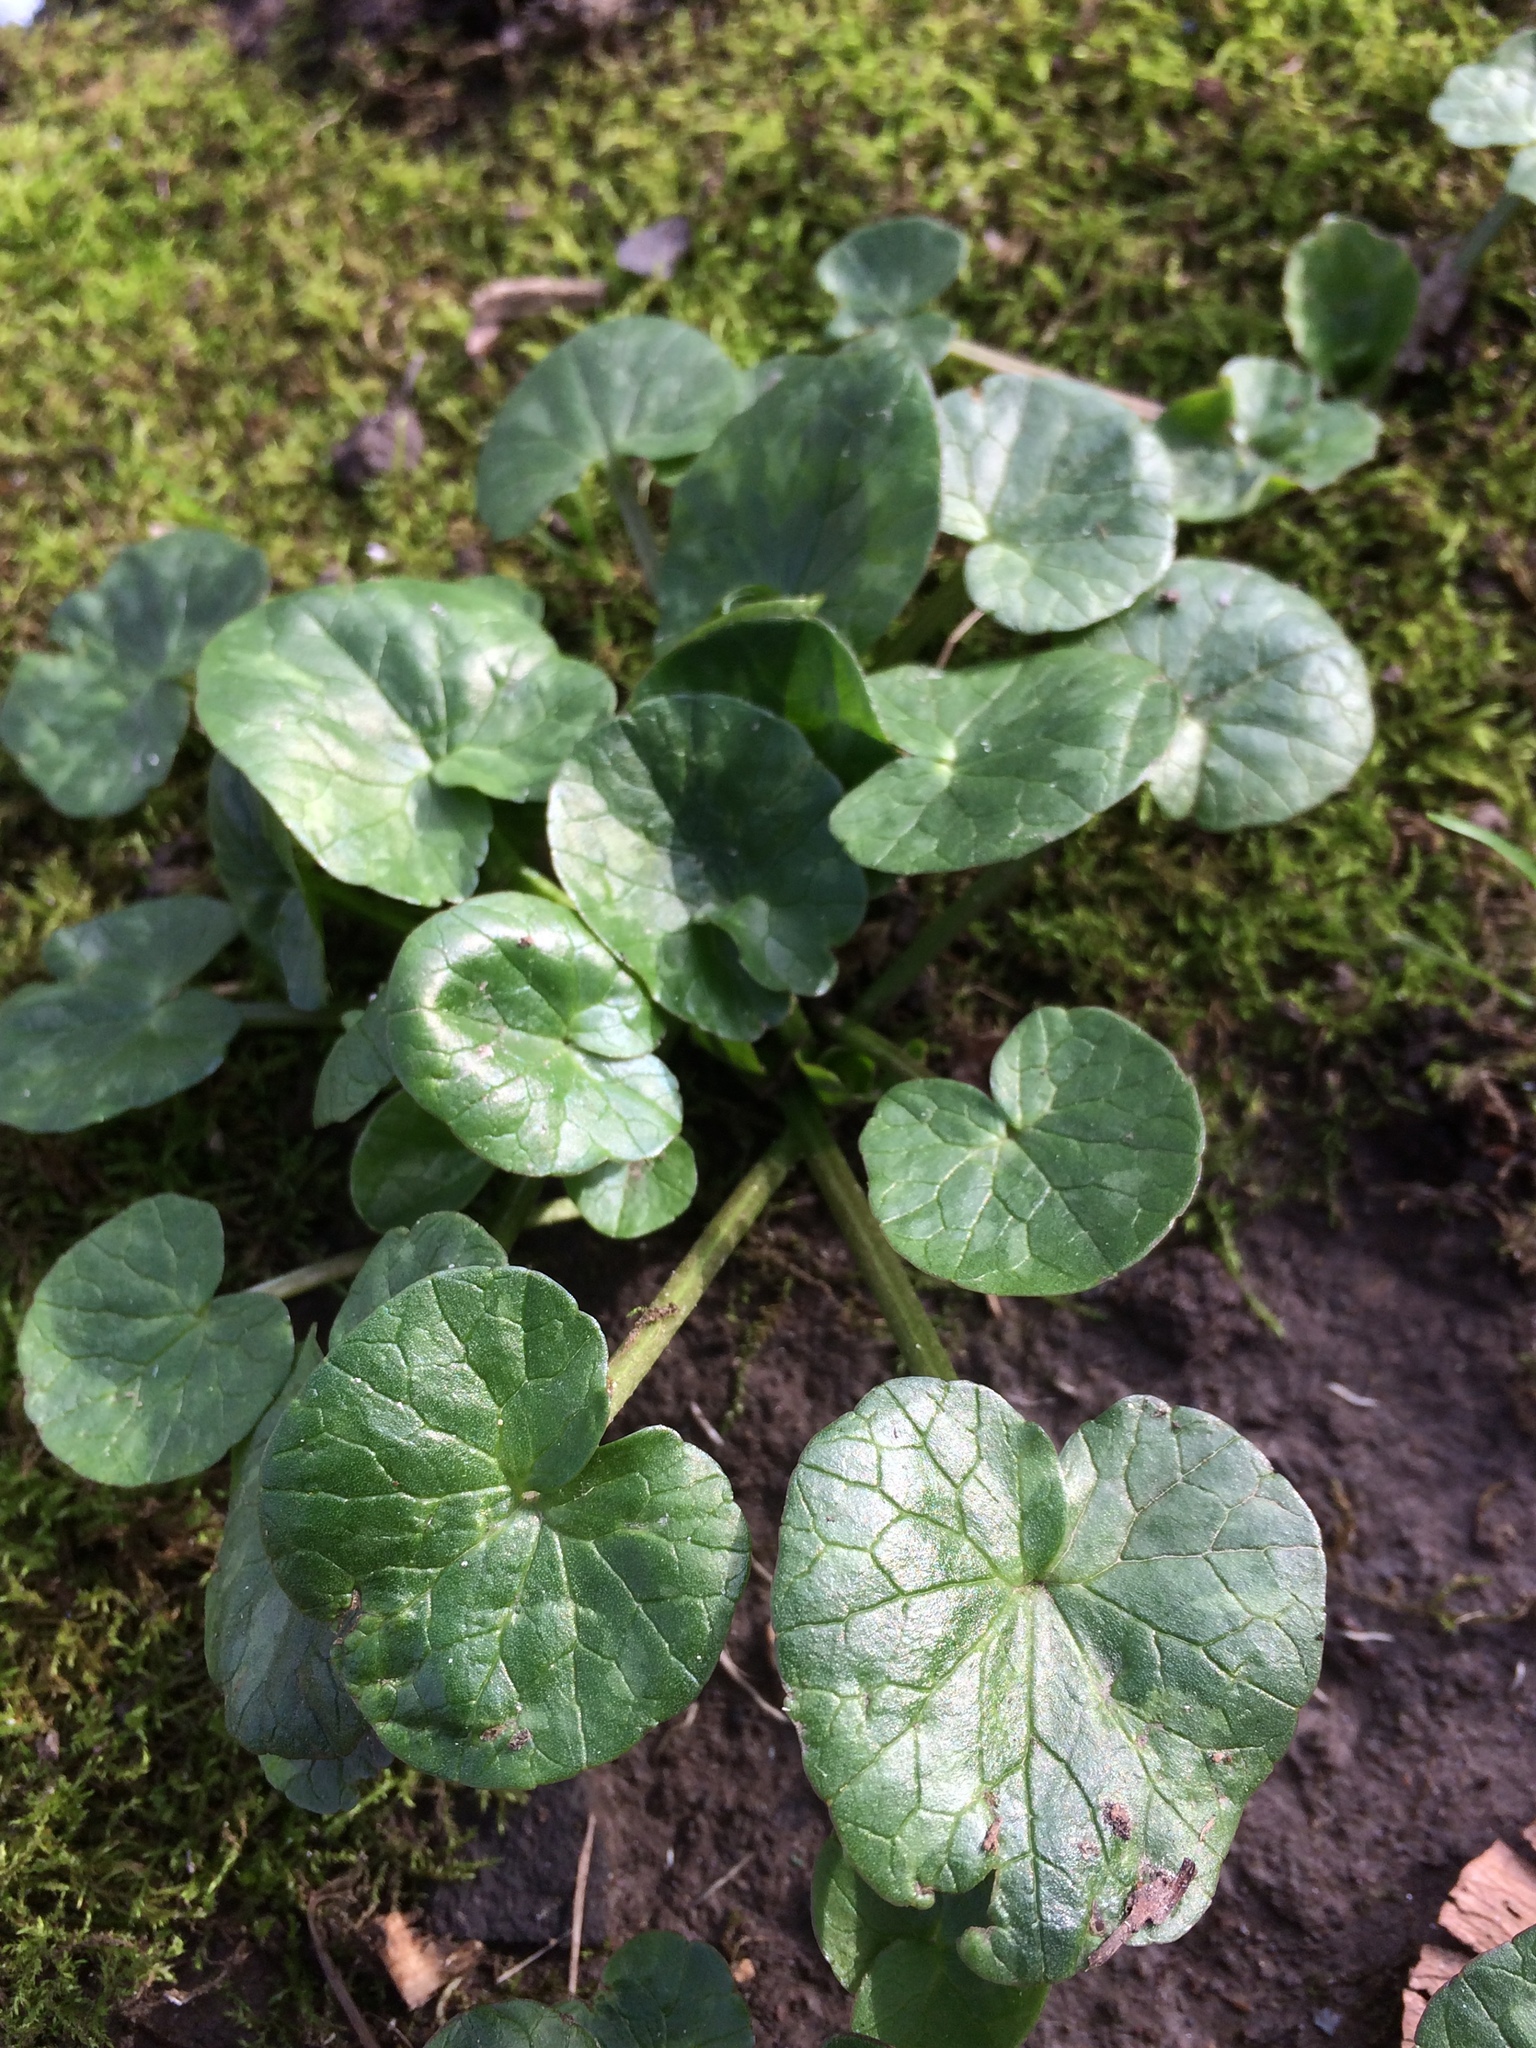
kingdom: Plantae
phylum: Tracheophyta
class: Magnoliopsida
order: Ranunculales
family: Ranunculaceae
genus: Ficaria
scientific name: Ficaria verna
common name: Lesser celandine
